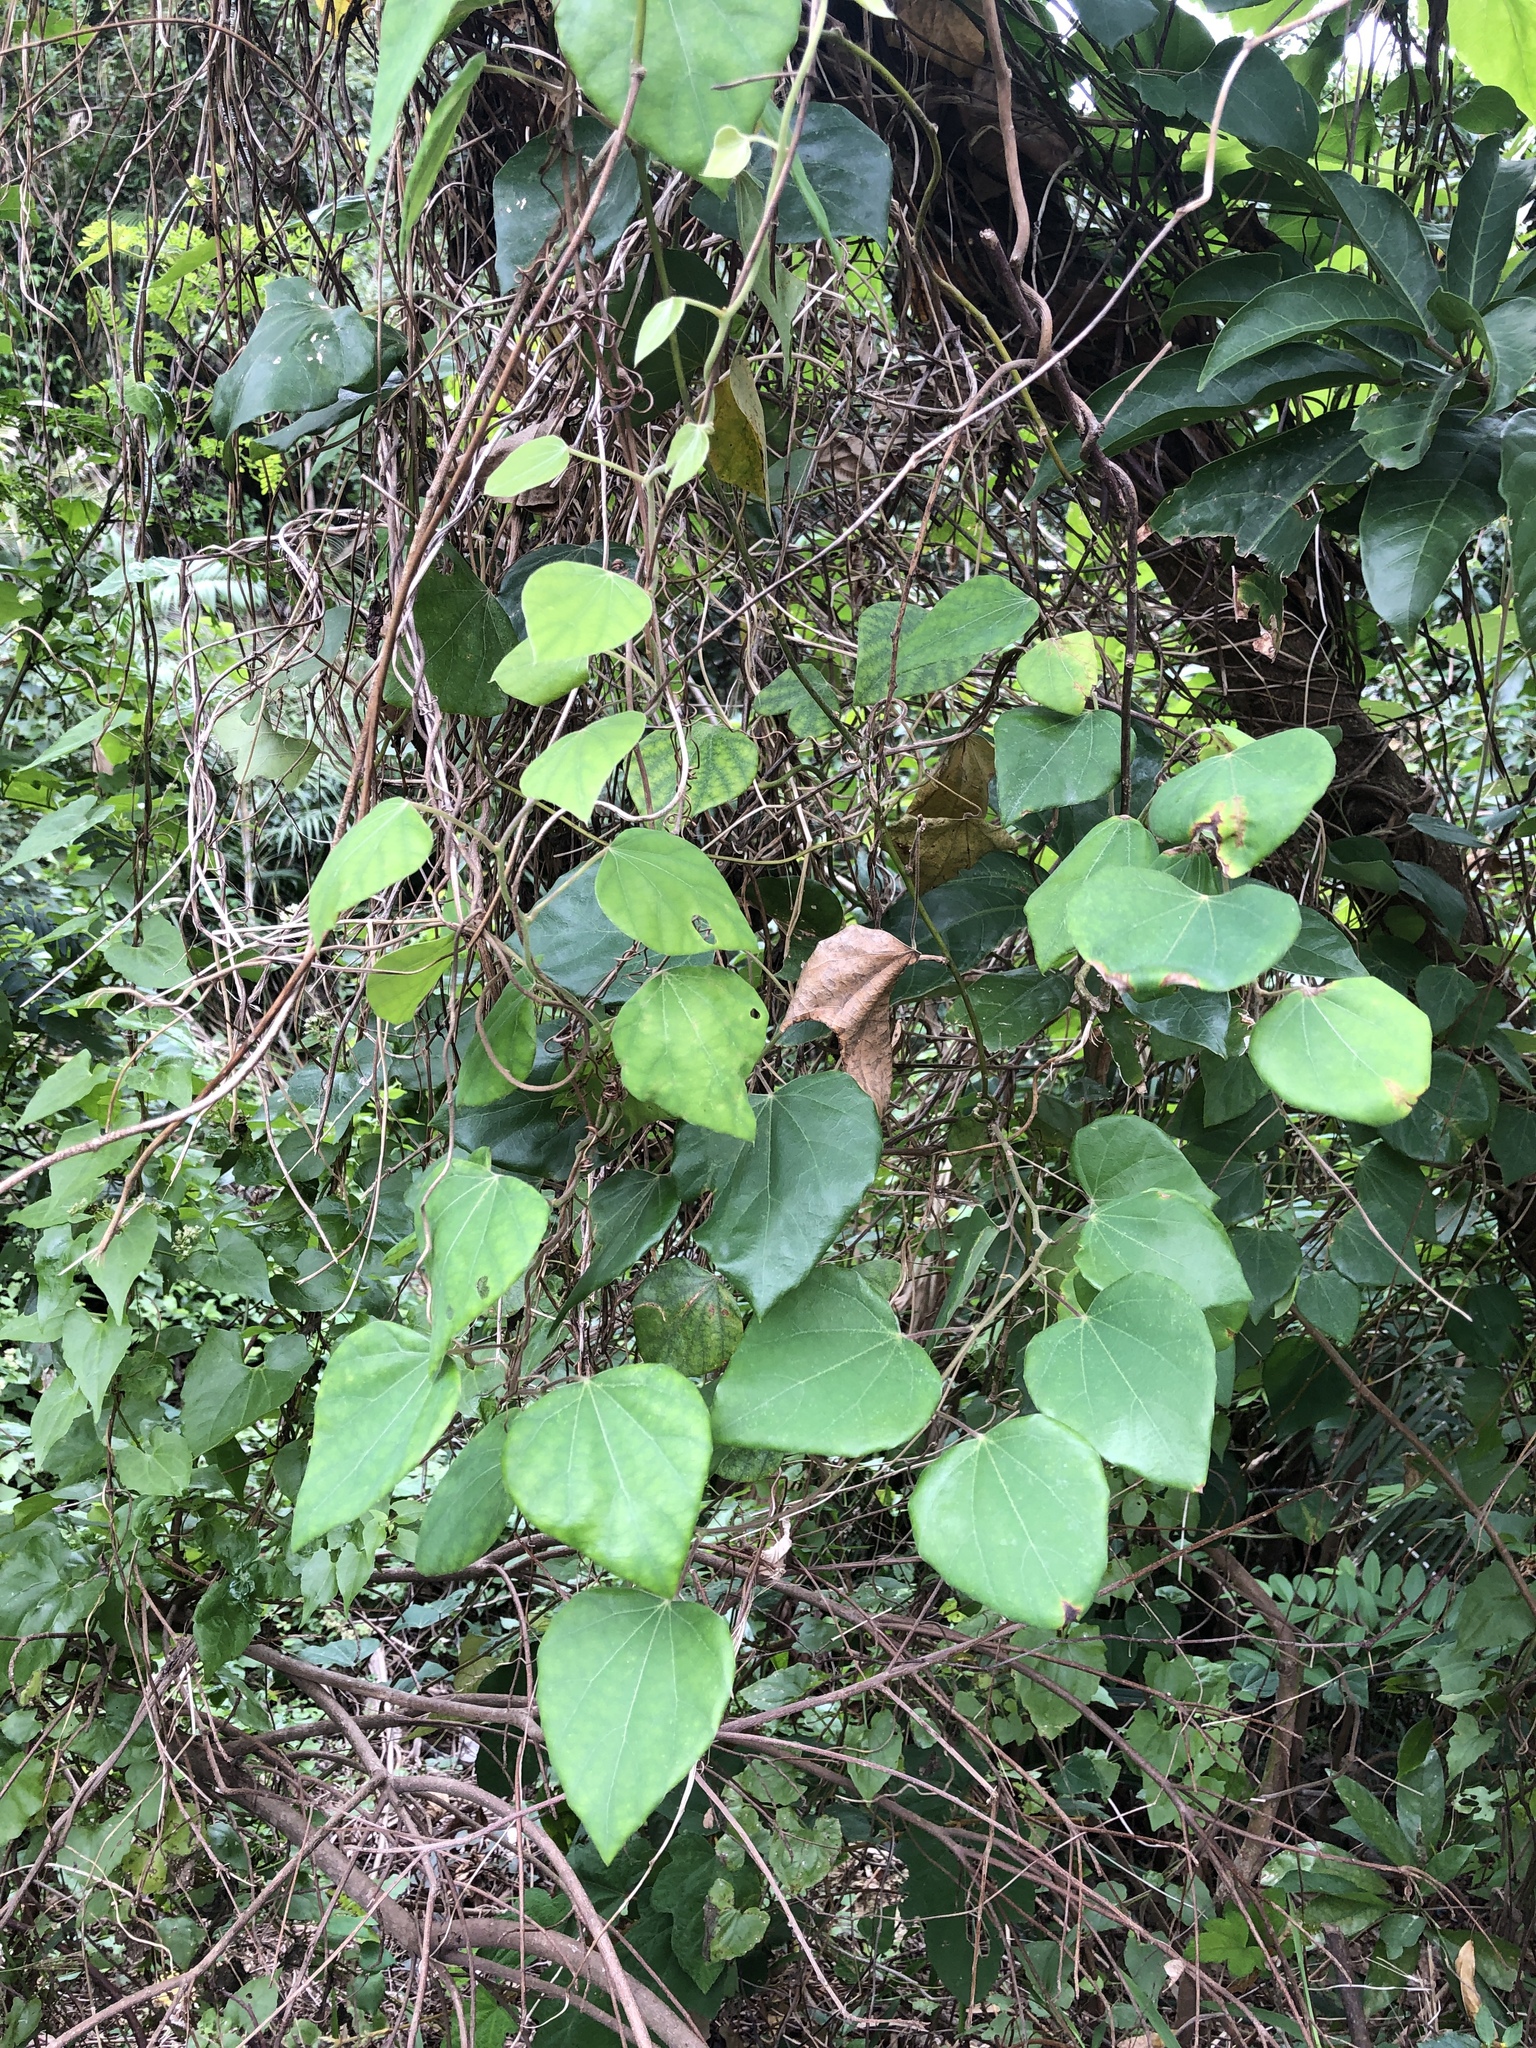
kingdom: Plantae
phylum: Tracheophyta
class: Magnoliopsida
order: Malpighiales
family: Euphorbiaceae
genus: Mallotus
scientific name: Mallotus repandus
